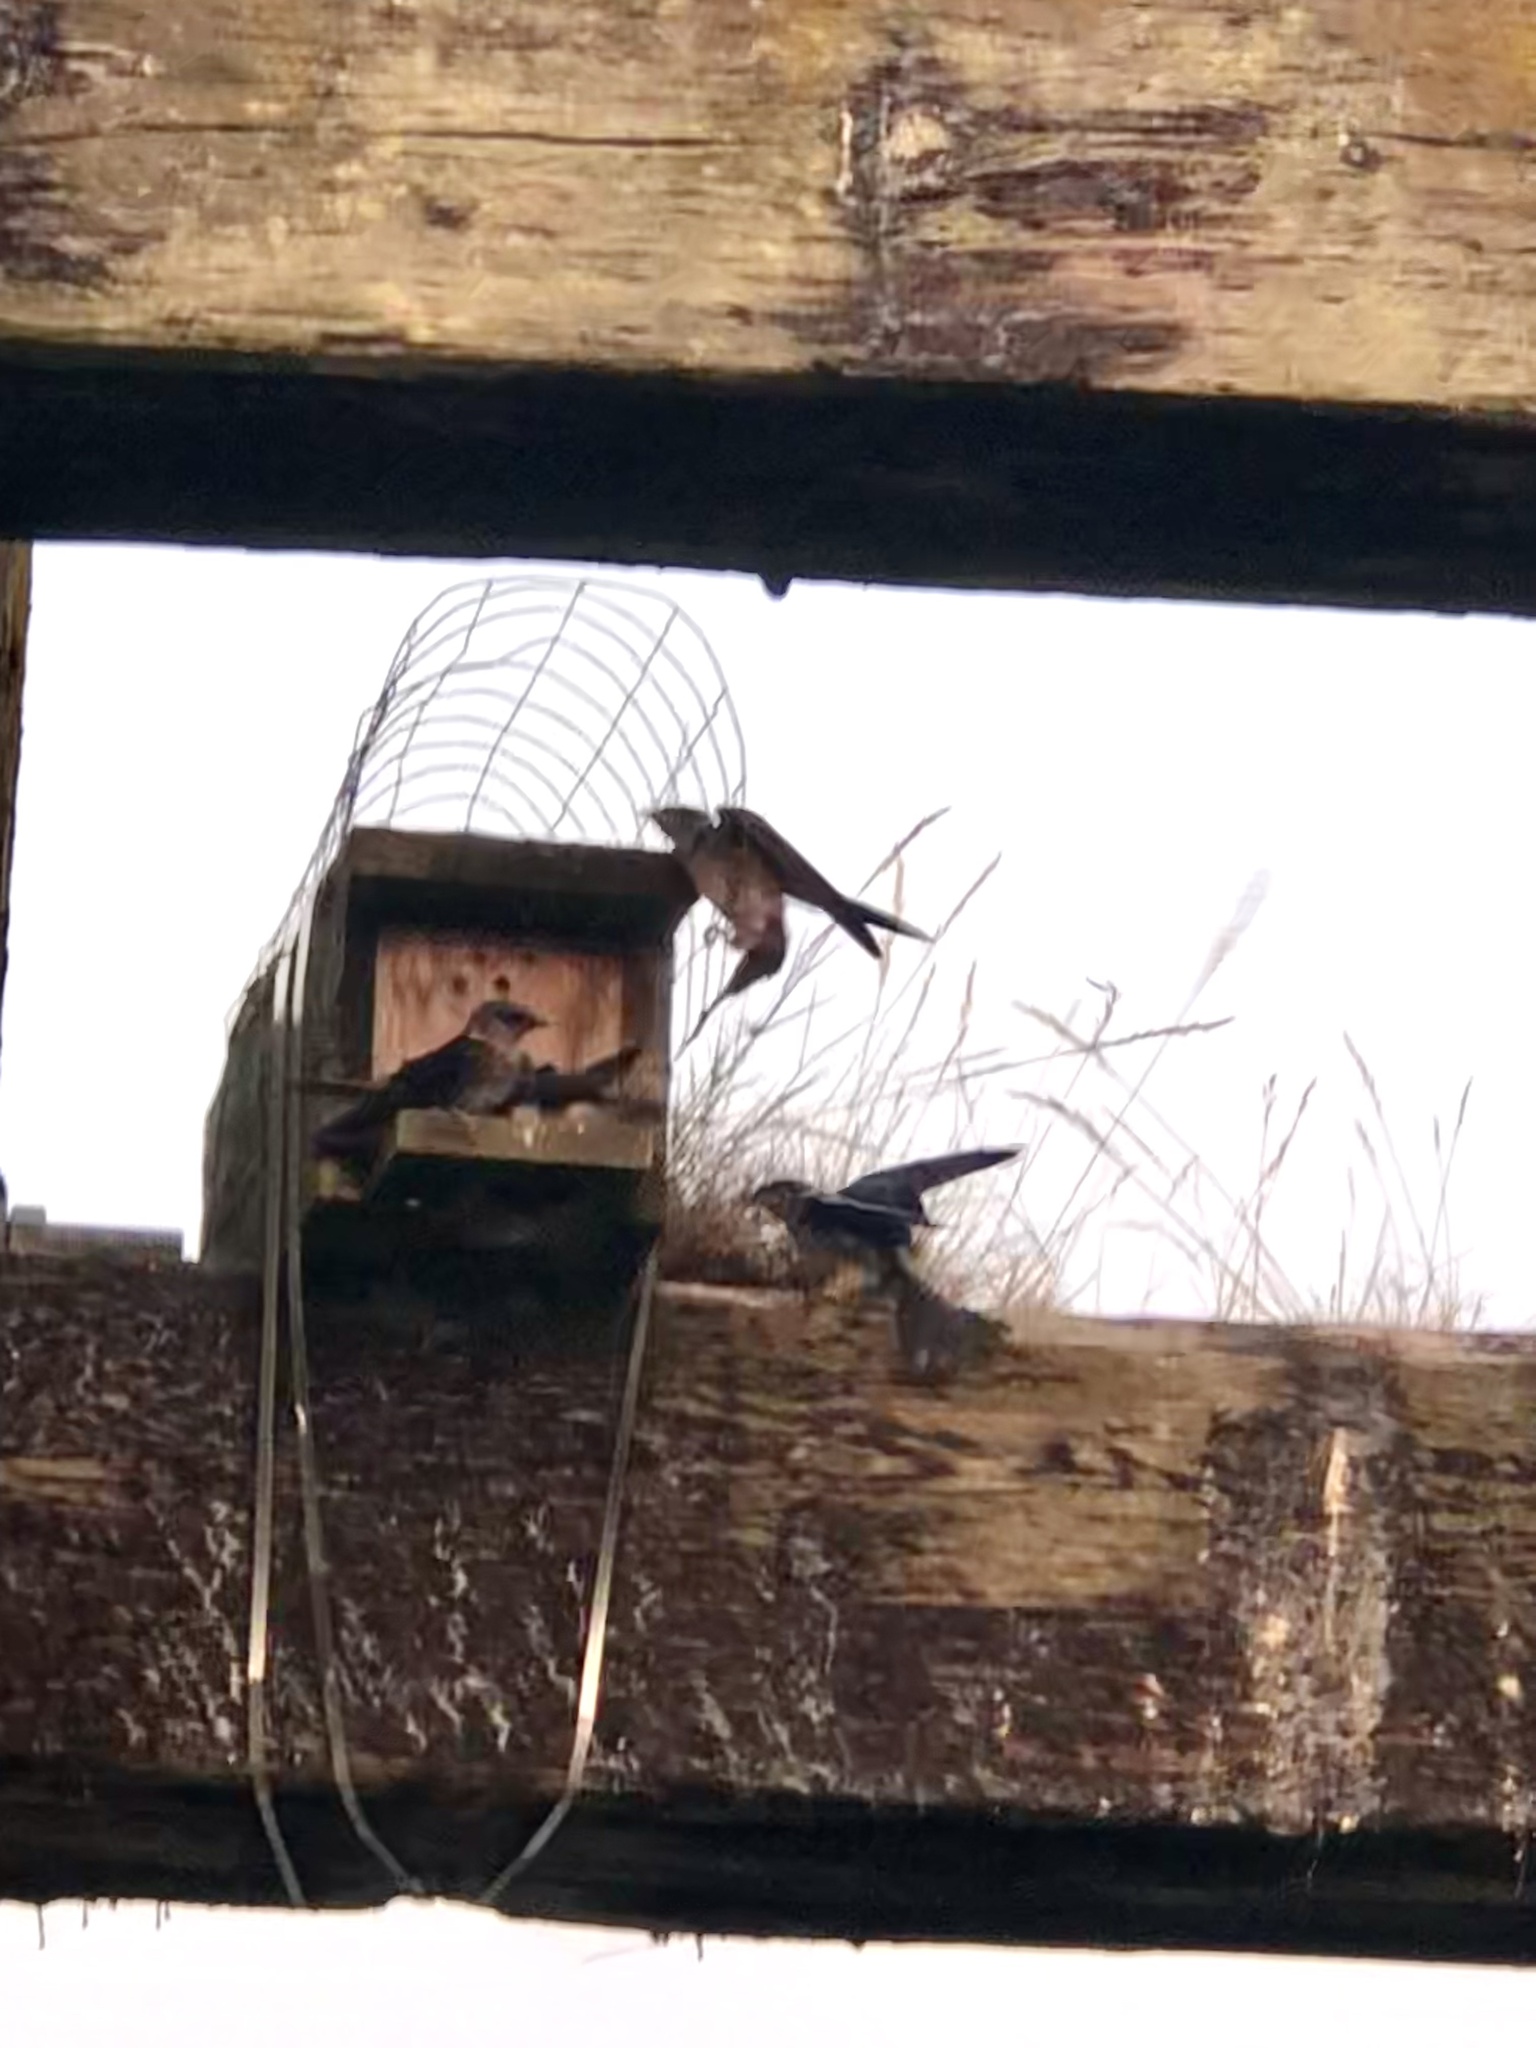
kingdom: Animalia
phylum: Chordata
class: Aves
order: Passeriformes
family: Hirundinidae
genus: Progne
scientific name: Progne subis
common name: Purple martin
